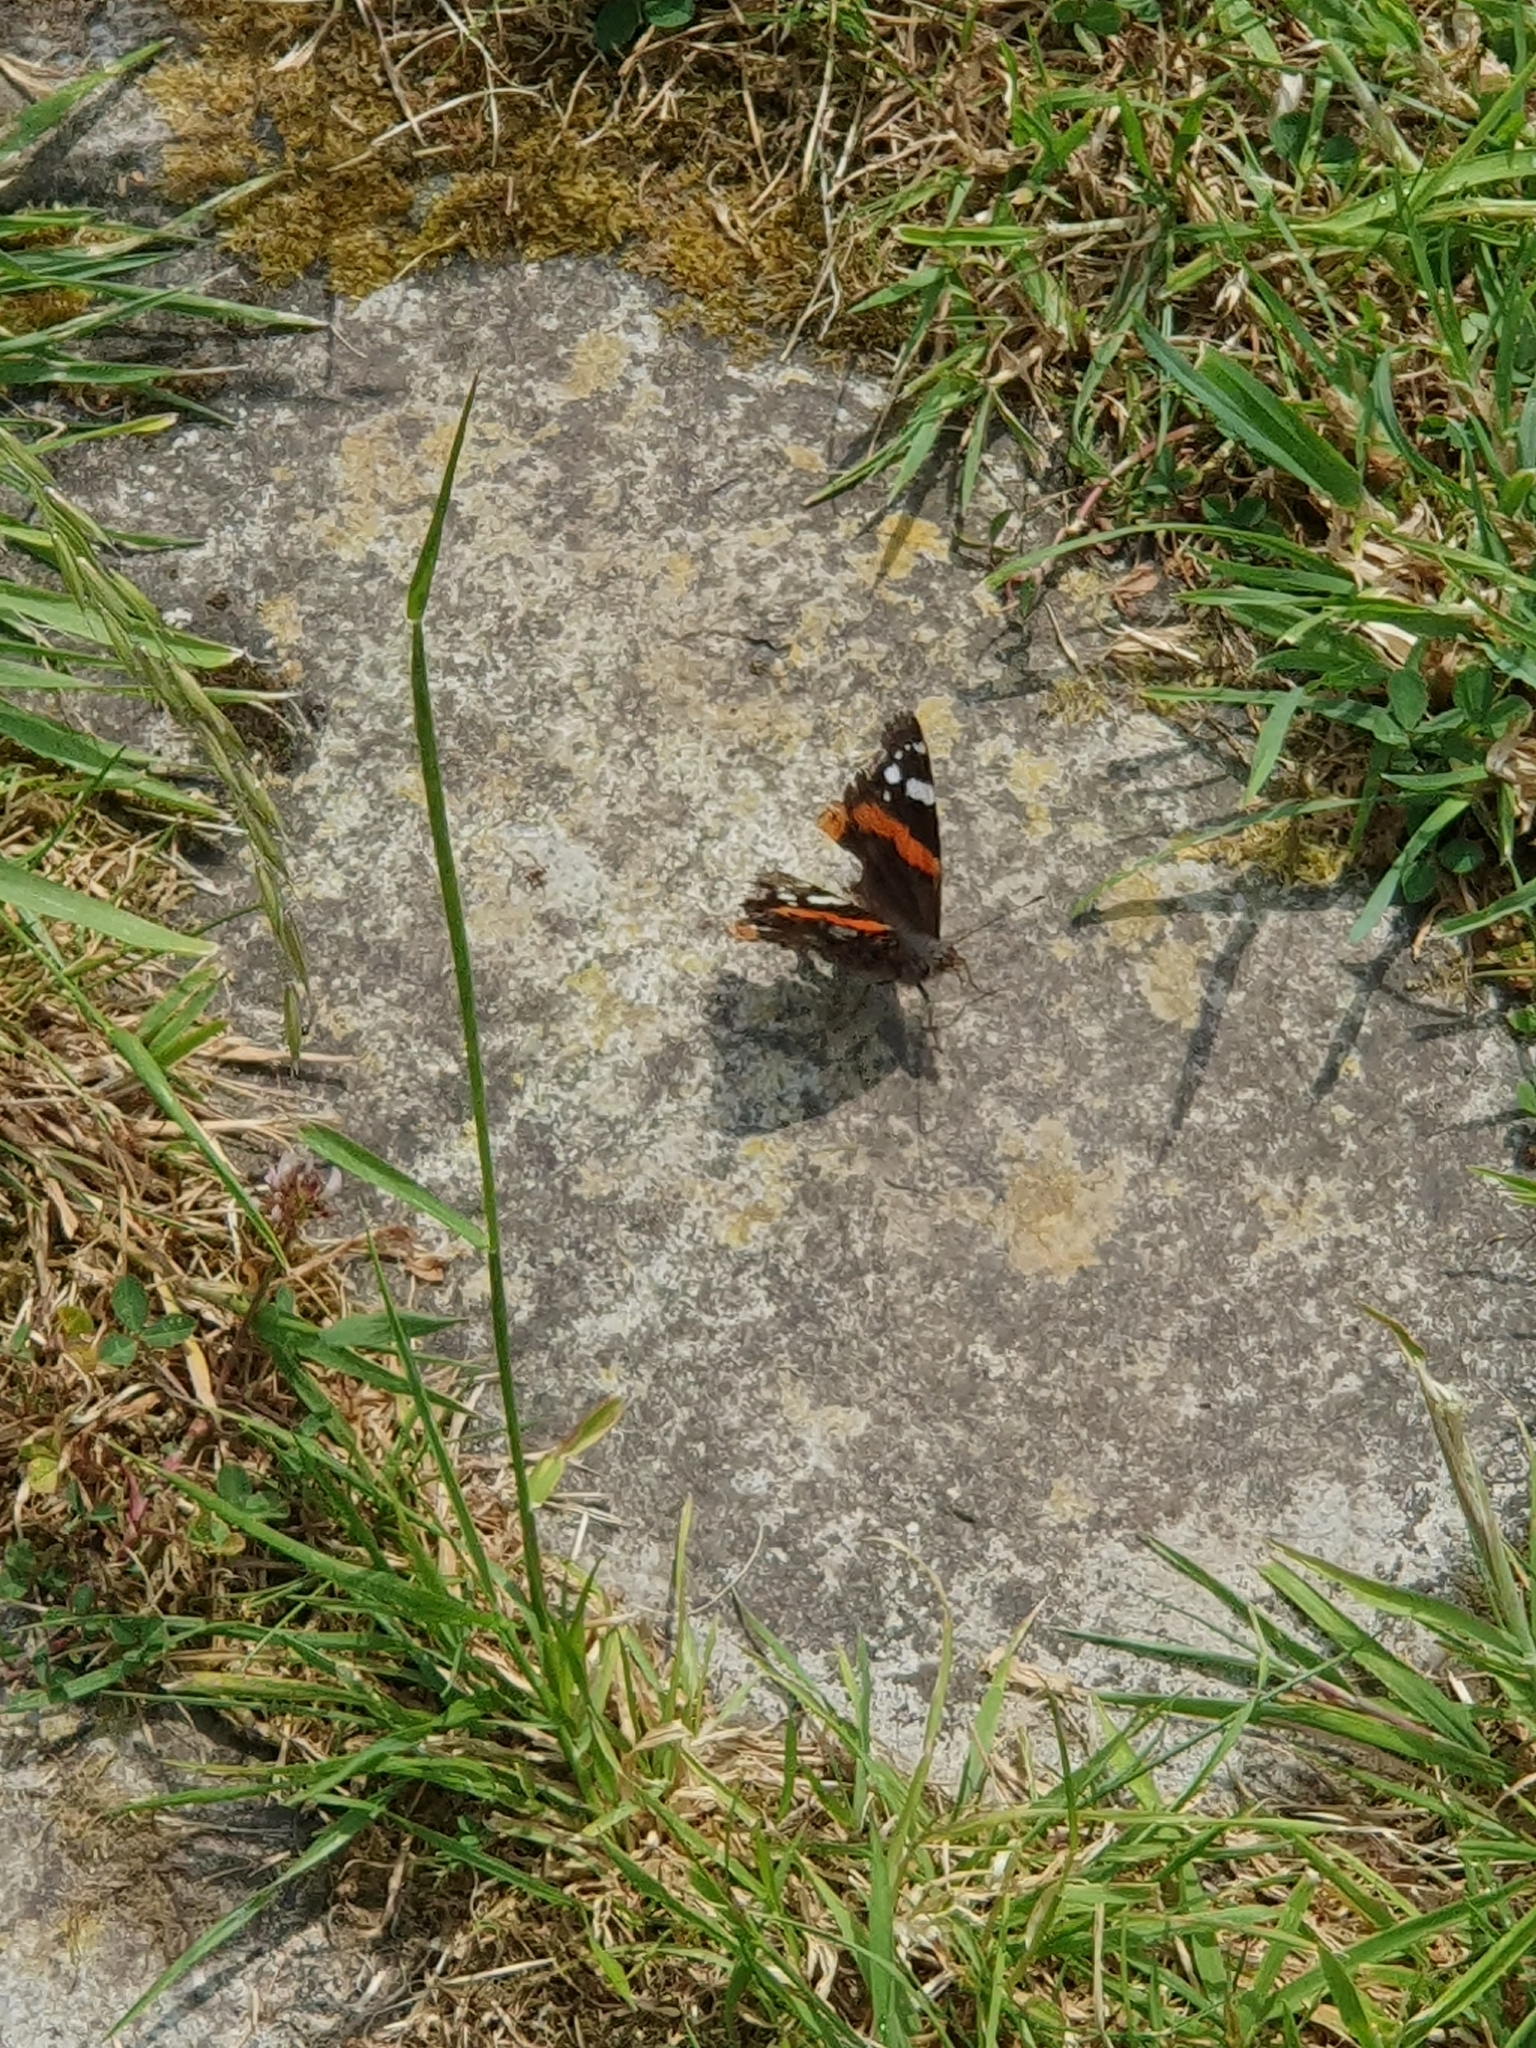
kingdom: Animalia
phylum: Arthropoda
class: Insecta
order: Lepidoptera
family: Nymphalidae
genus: Vanessa
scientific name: Vanessa atalanta
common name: Red admiral
